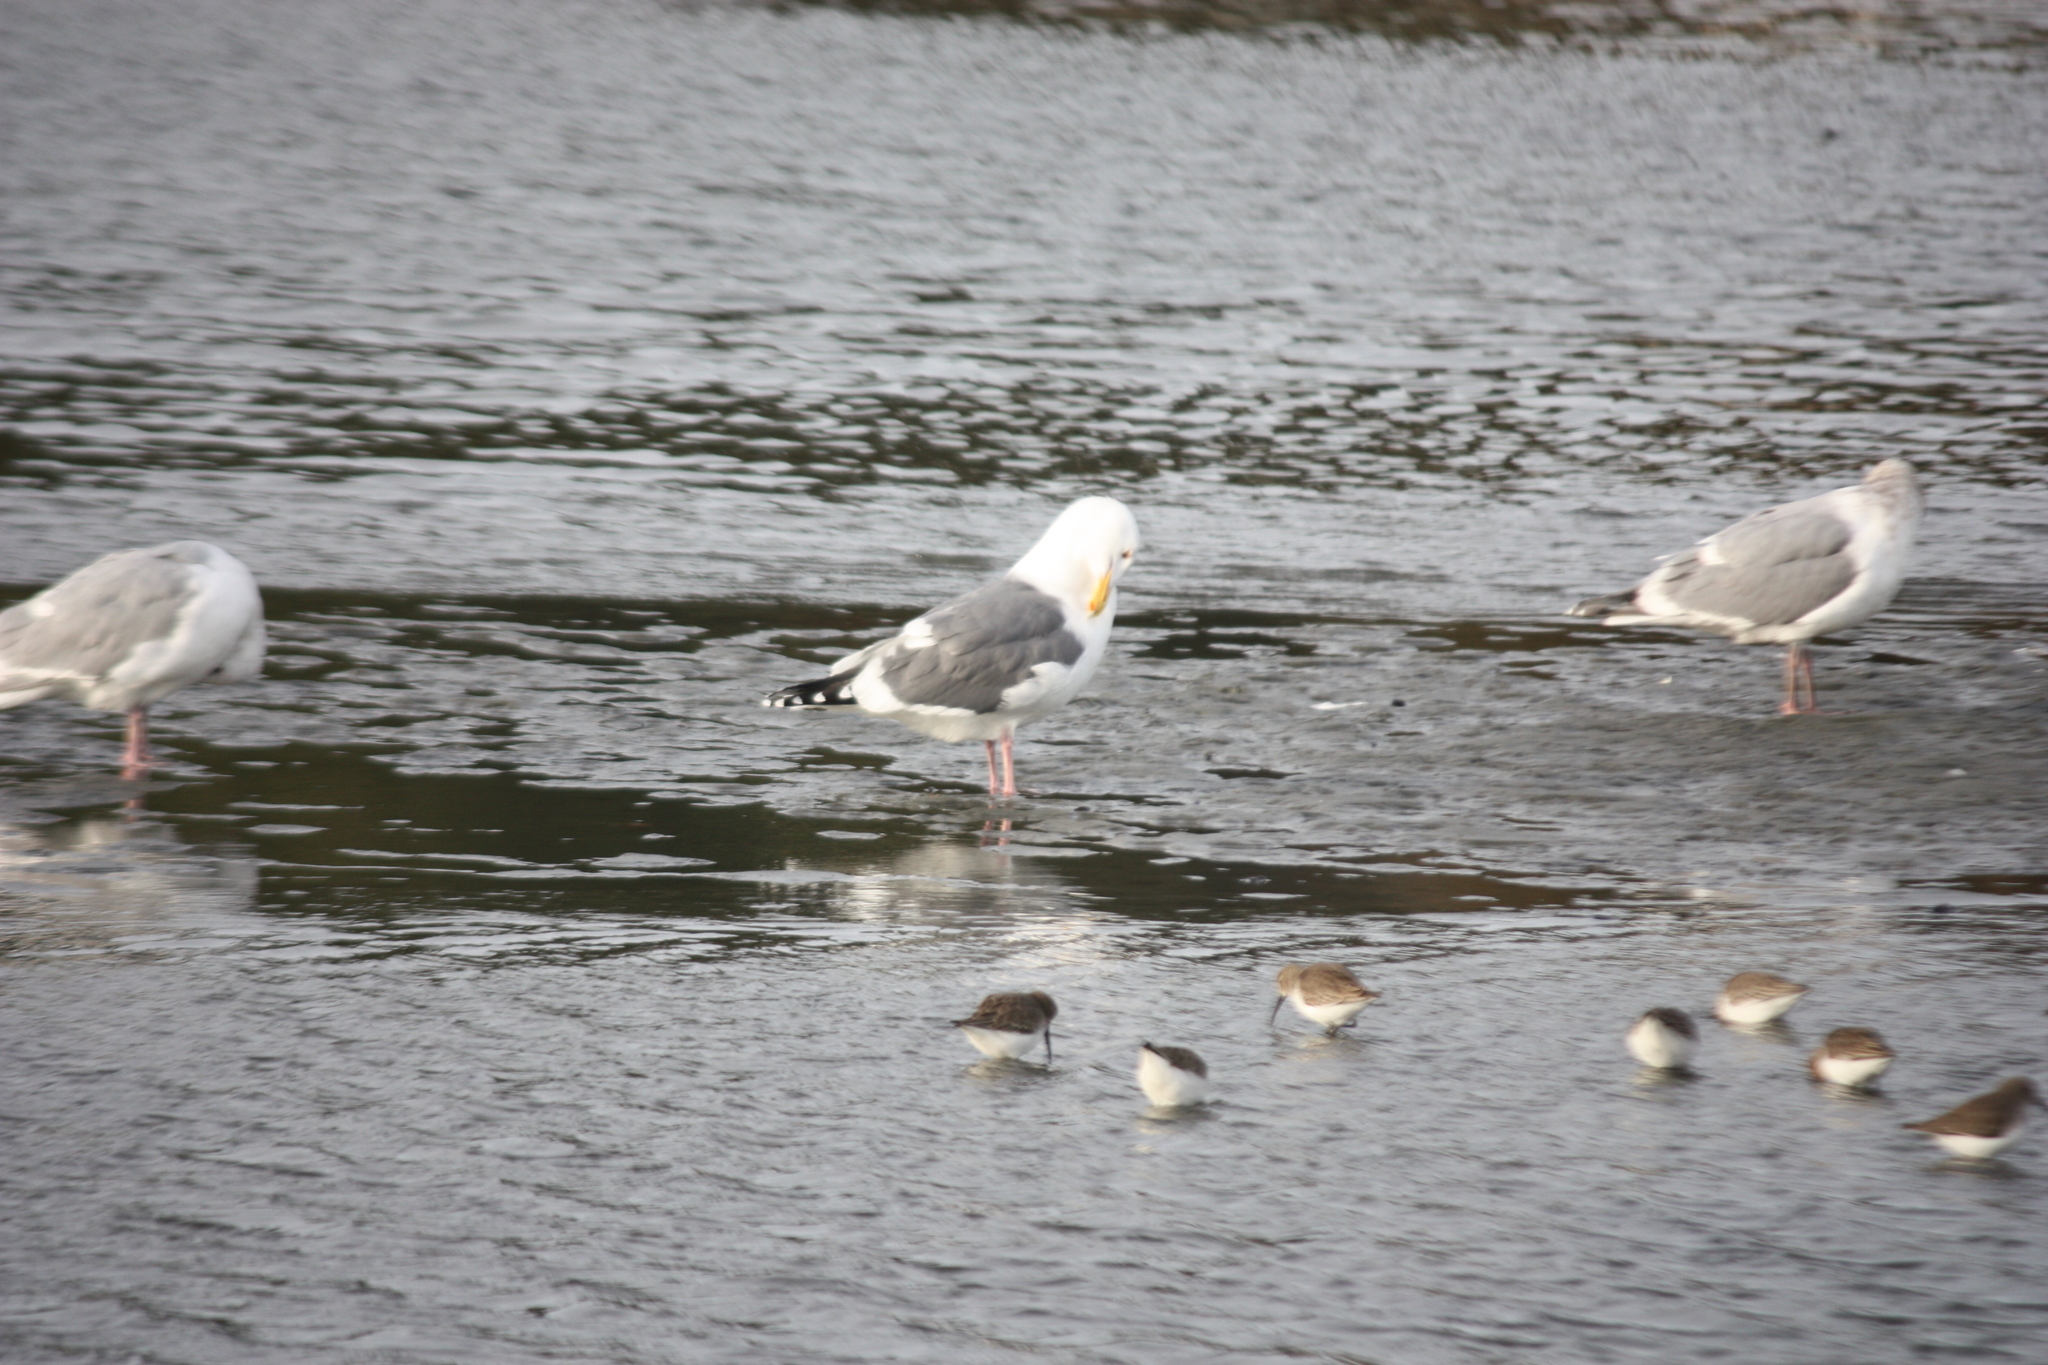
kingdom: Animalia
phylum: Chordata
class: Aves
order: Charadriiformes
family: Laridae
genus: Larus
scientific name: Larus occidentalis
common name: Western gull
